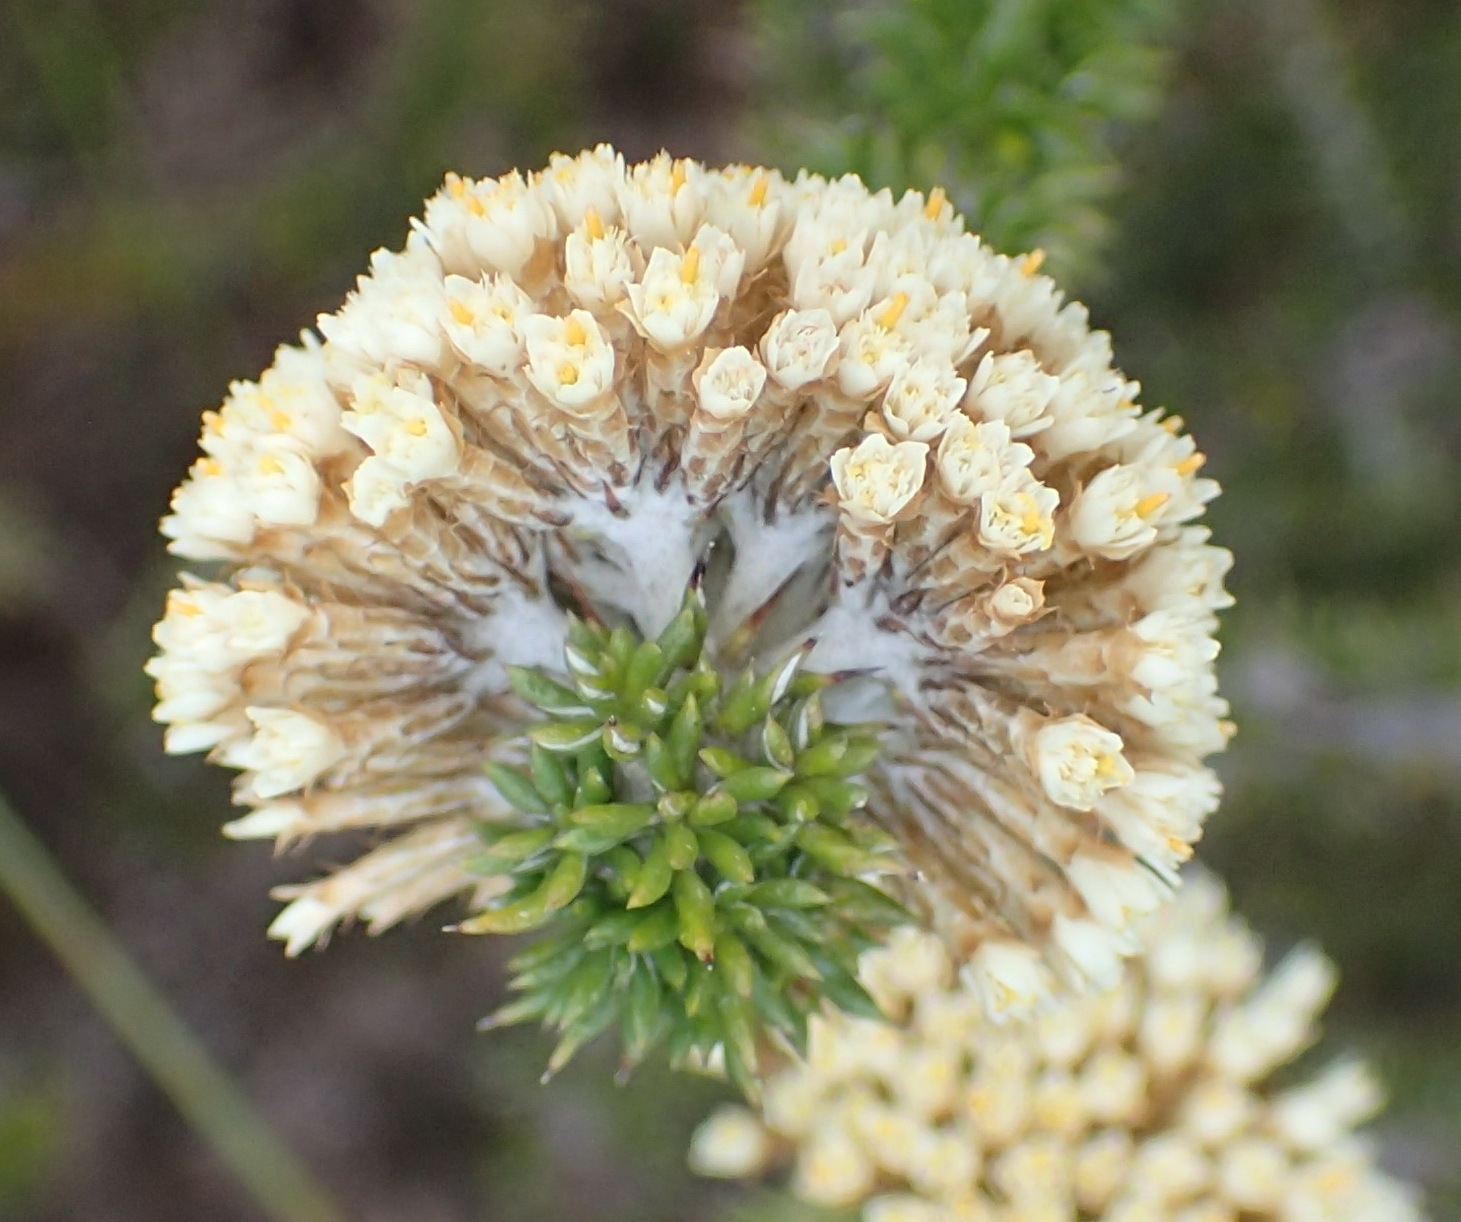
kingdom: Plantae
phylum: Tracheophyta
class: Magnoliopsida
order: Asterales
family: Asteraceae
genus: Metalasia
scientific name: Metalasia luteola
